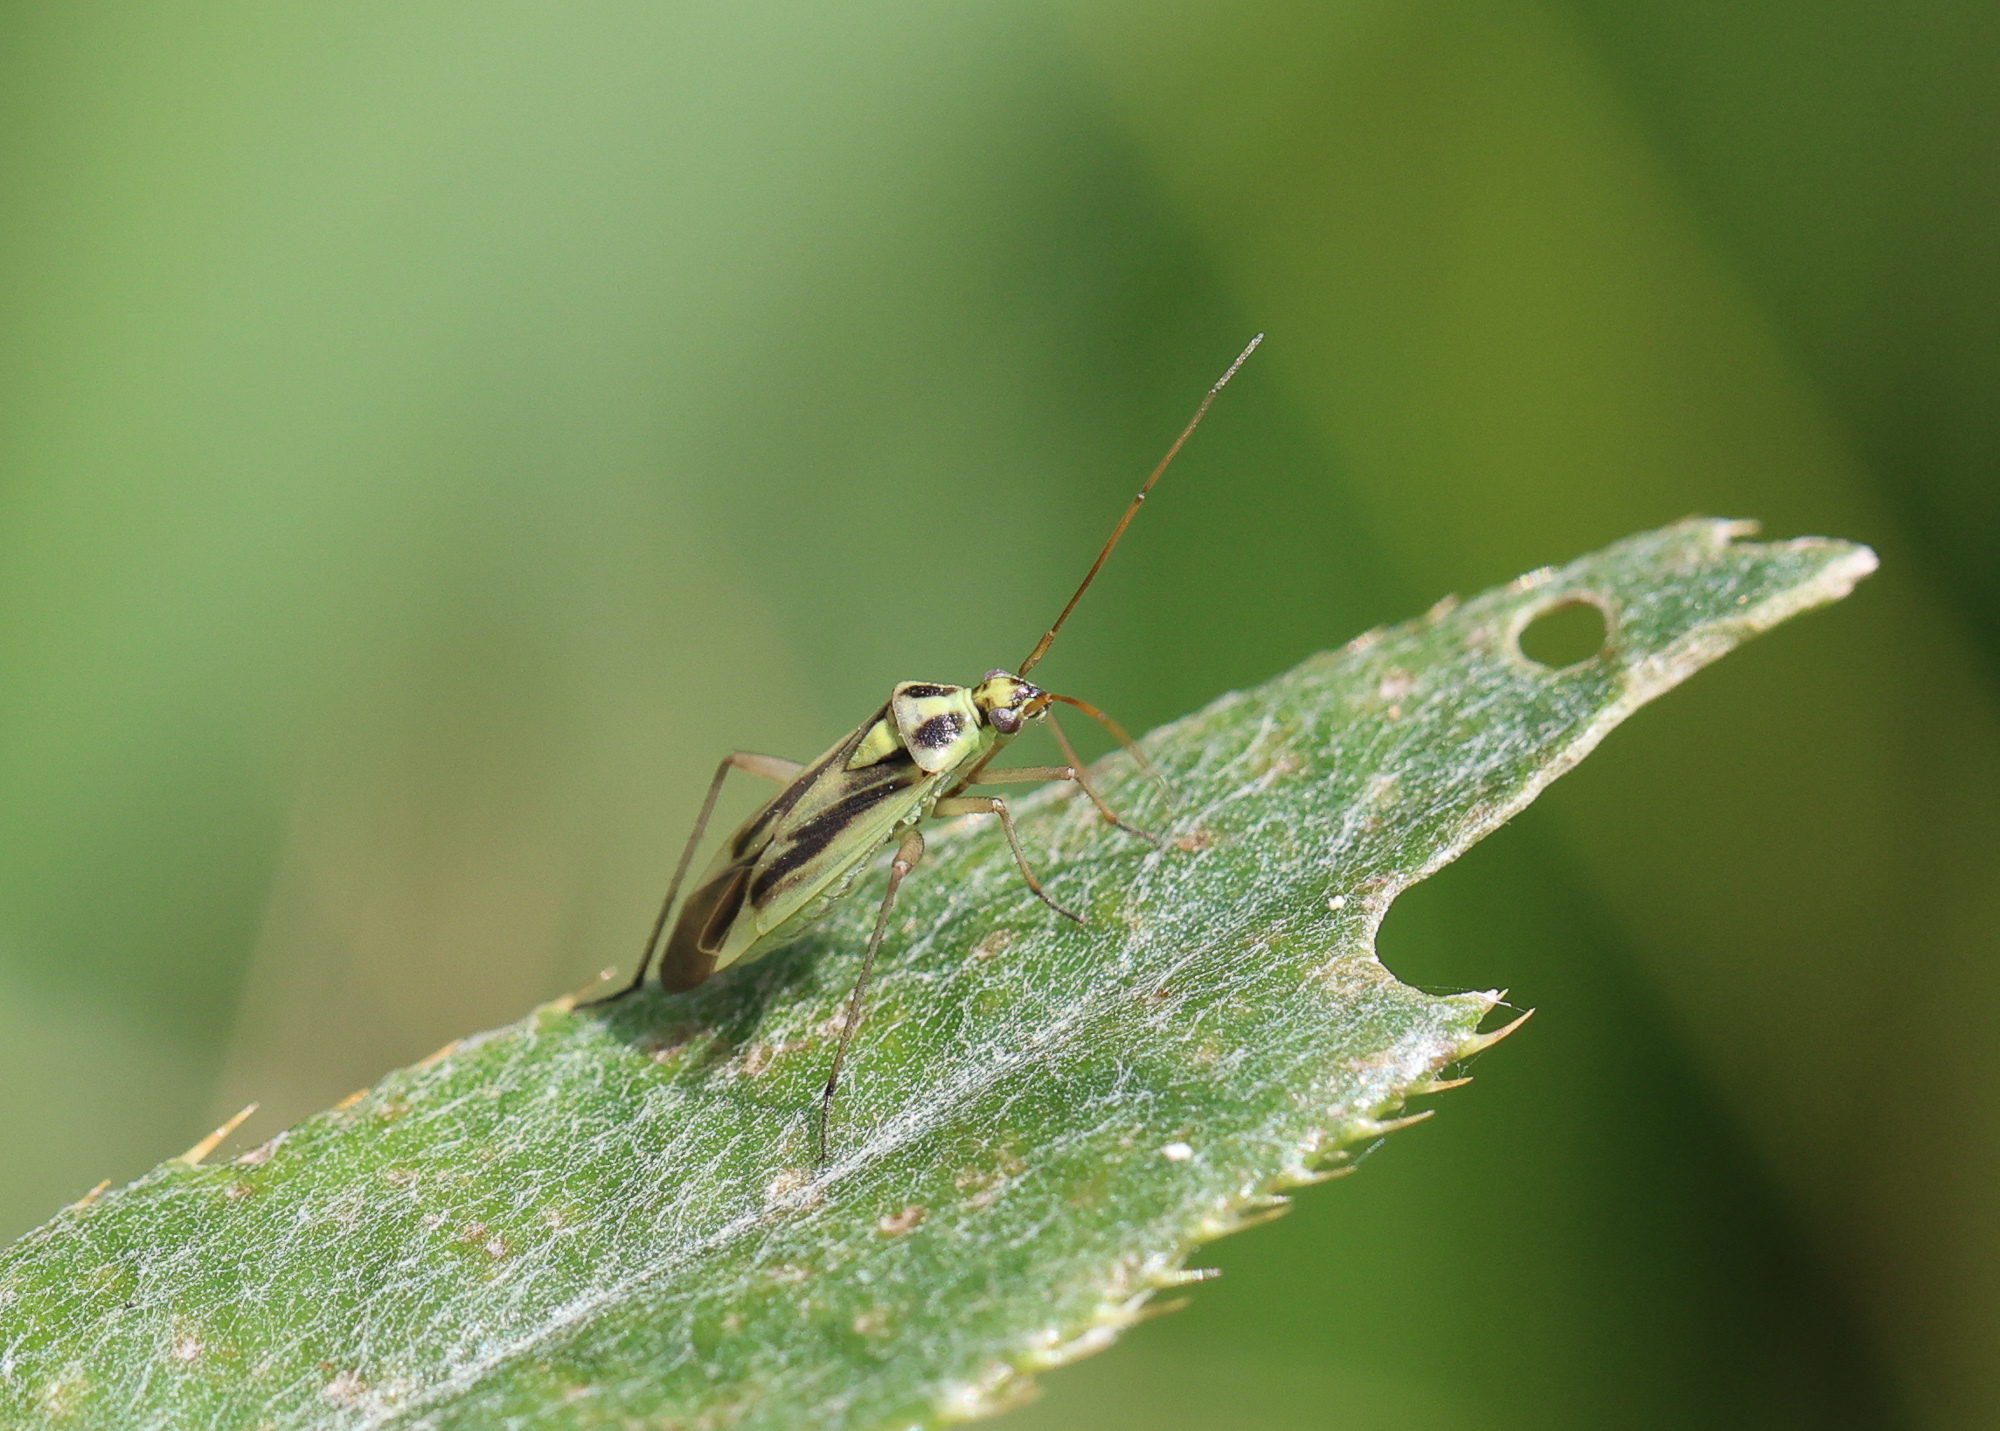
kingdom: Animalia
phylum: Arthropoda
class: Insecta
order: Hemiptera
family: Miridae
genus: Stenotus
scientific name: Stenotus binotatus
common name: Plant bug
